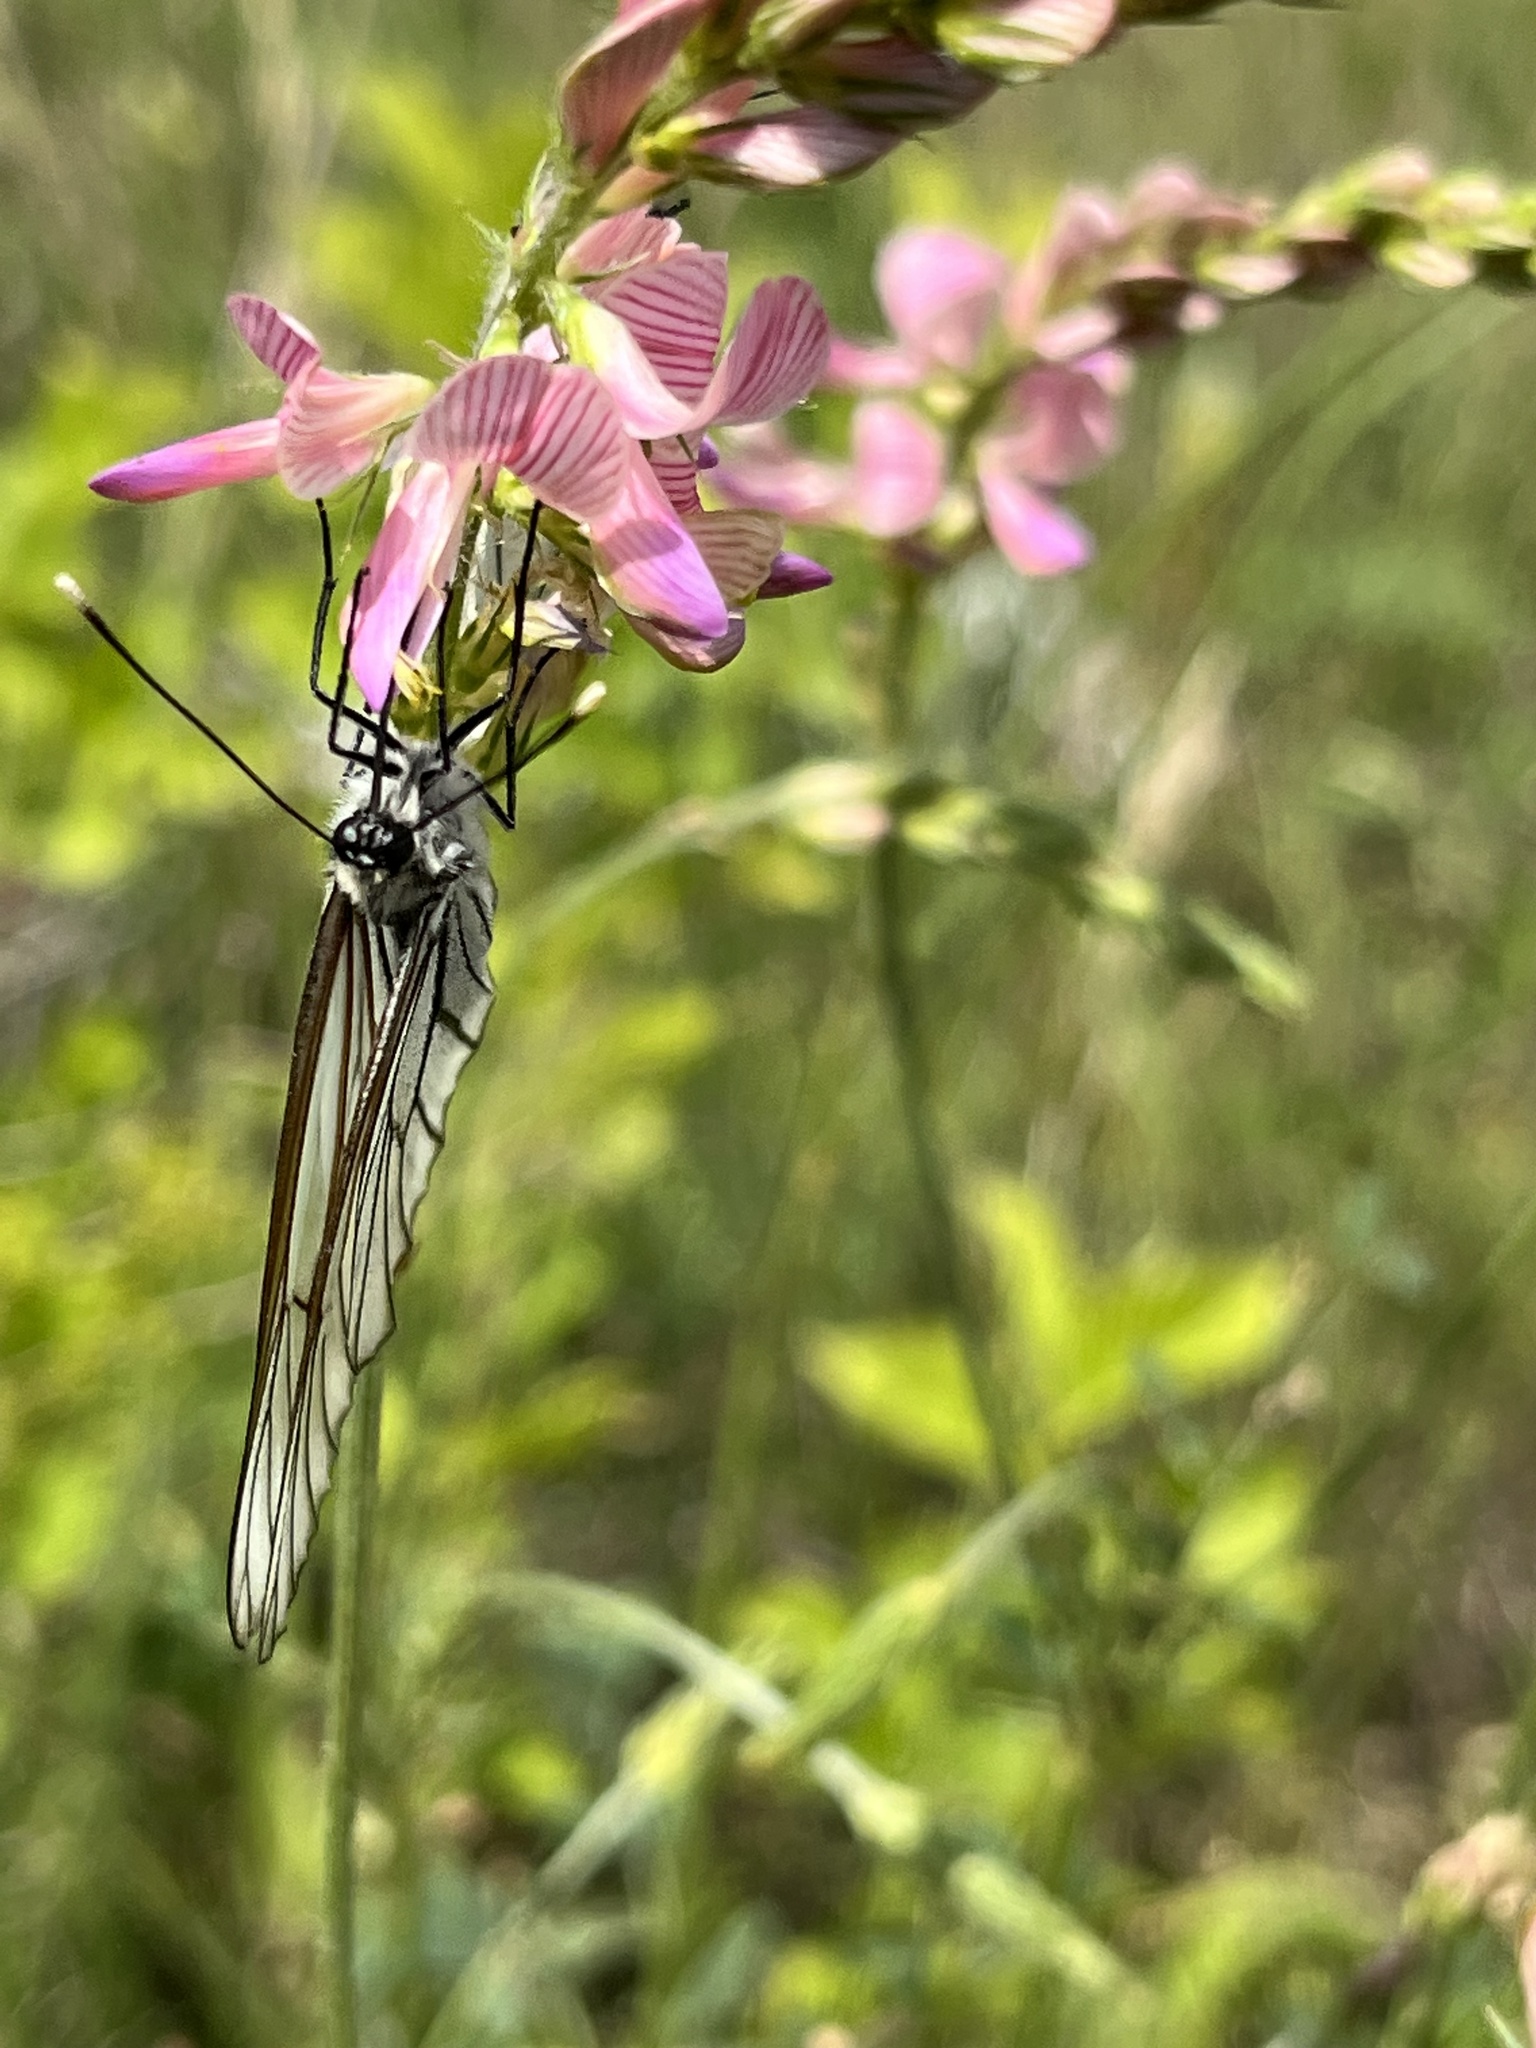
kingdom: Animalia
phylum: Arthropoda
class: Insecta
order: Lepidoptera
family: Pieridae
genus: Aporia
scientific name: Aporia crataegi
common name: Black-veined white
